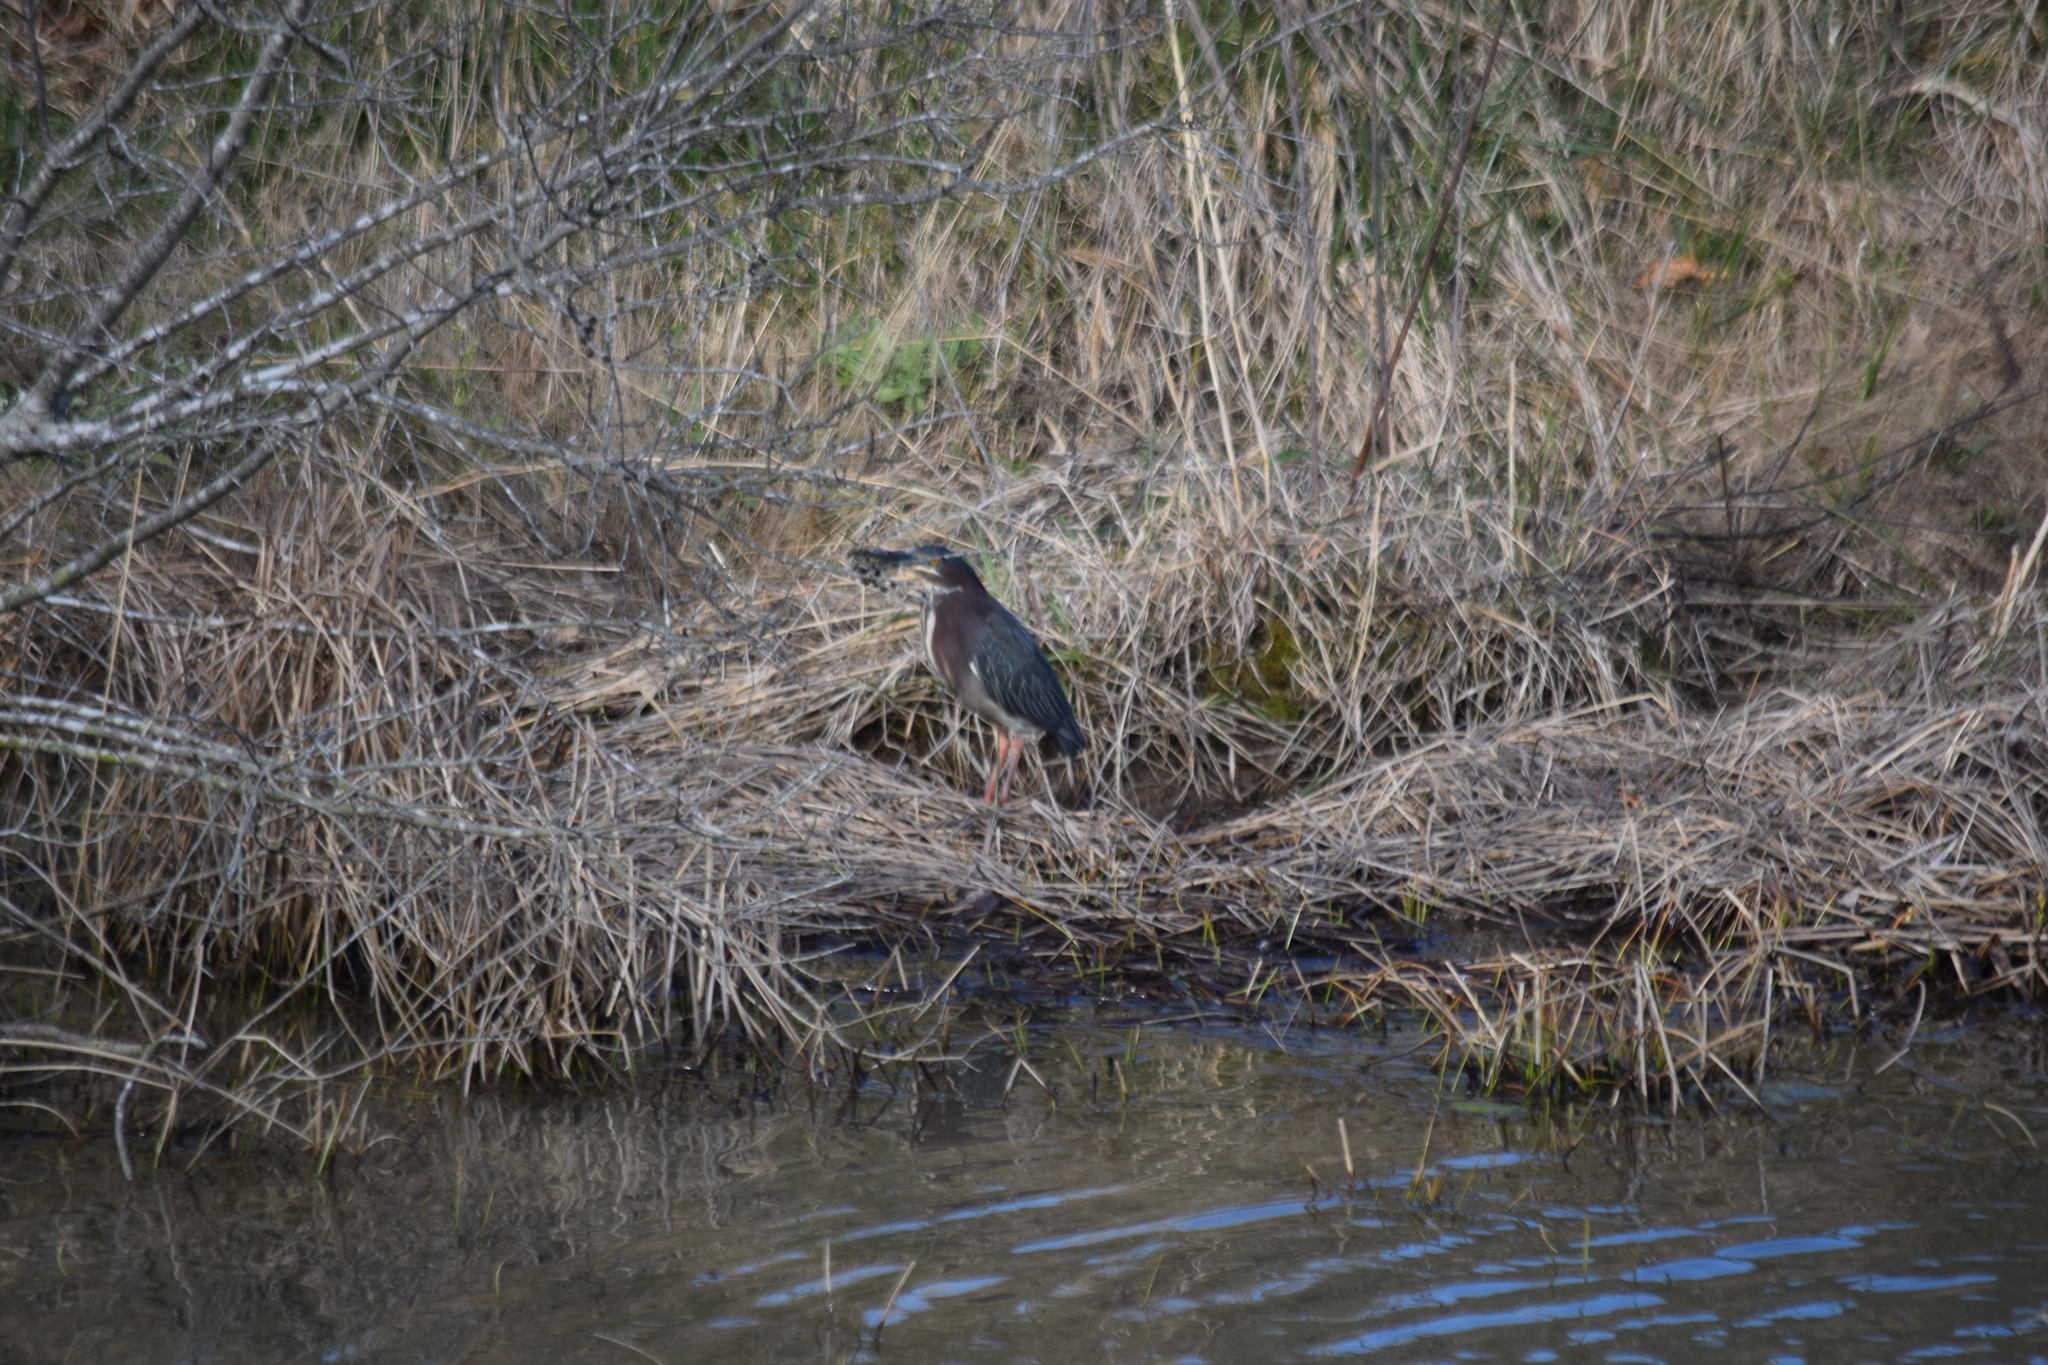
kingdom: Animalia
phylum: Chordata
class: Aves
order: Pelecaniformes
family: Ardeidae
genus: Butorides
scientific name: Butorides virescens
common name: Green heron
